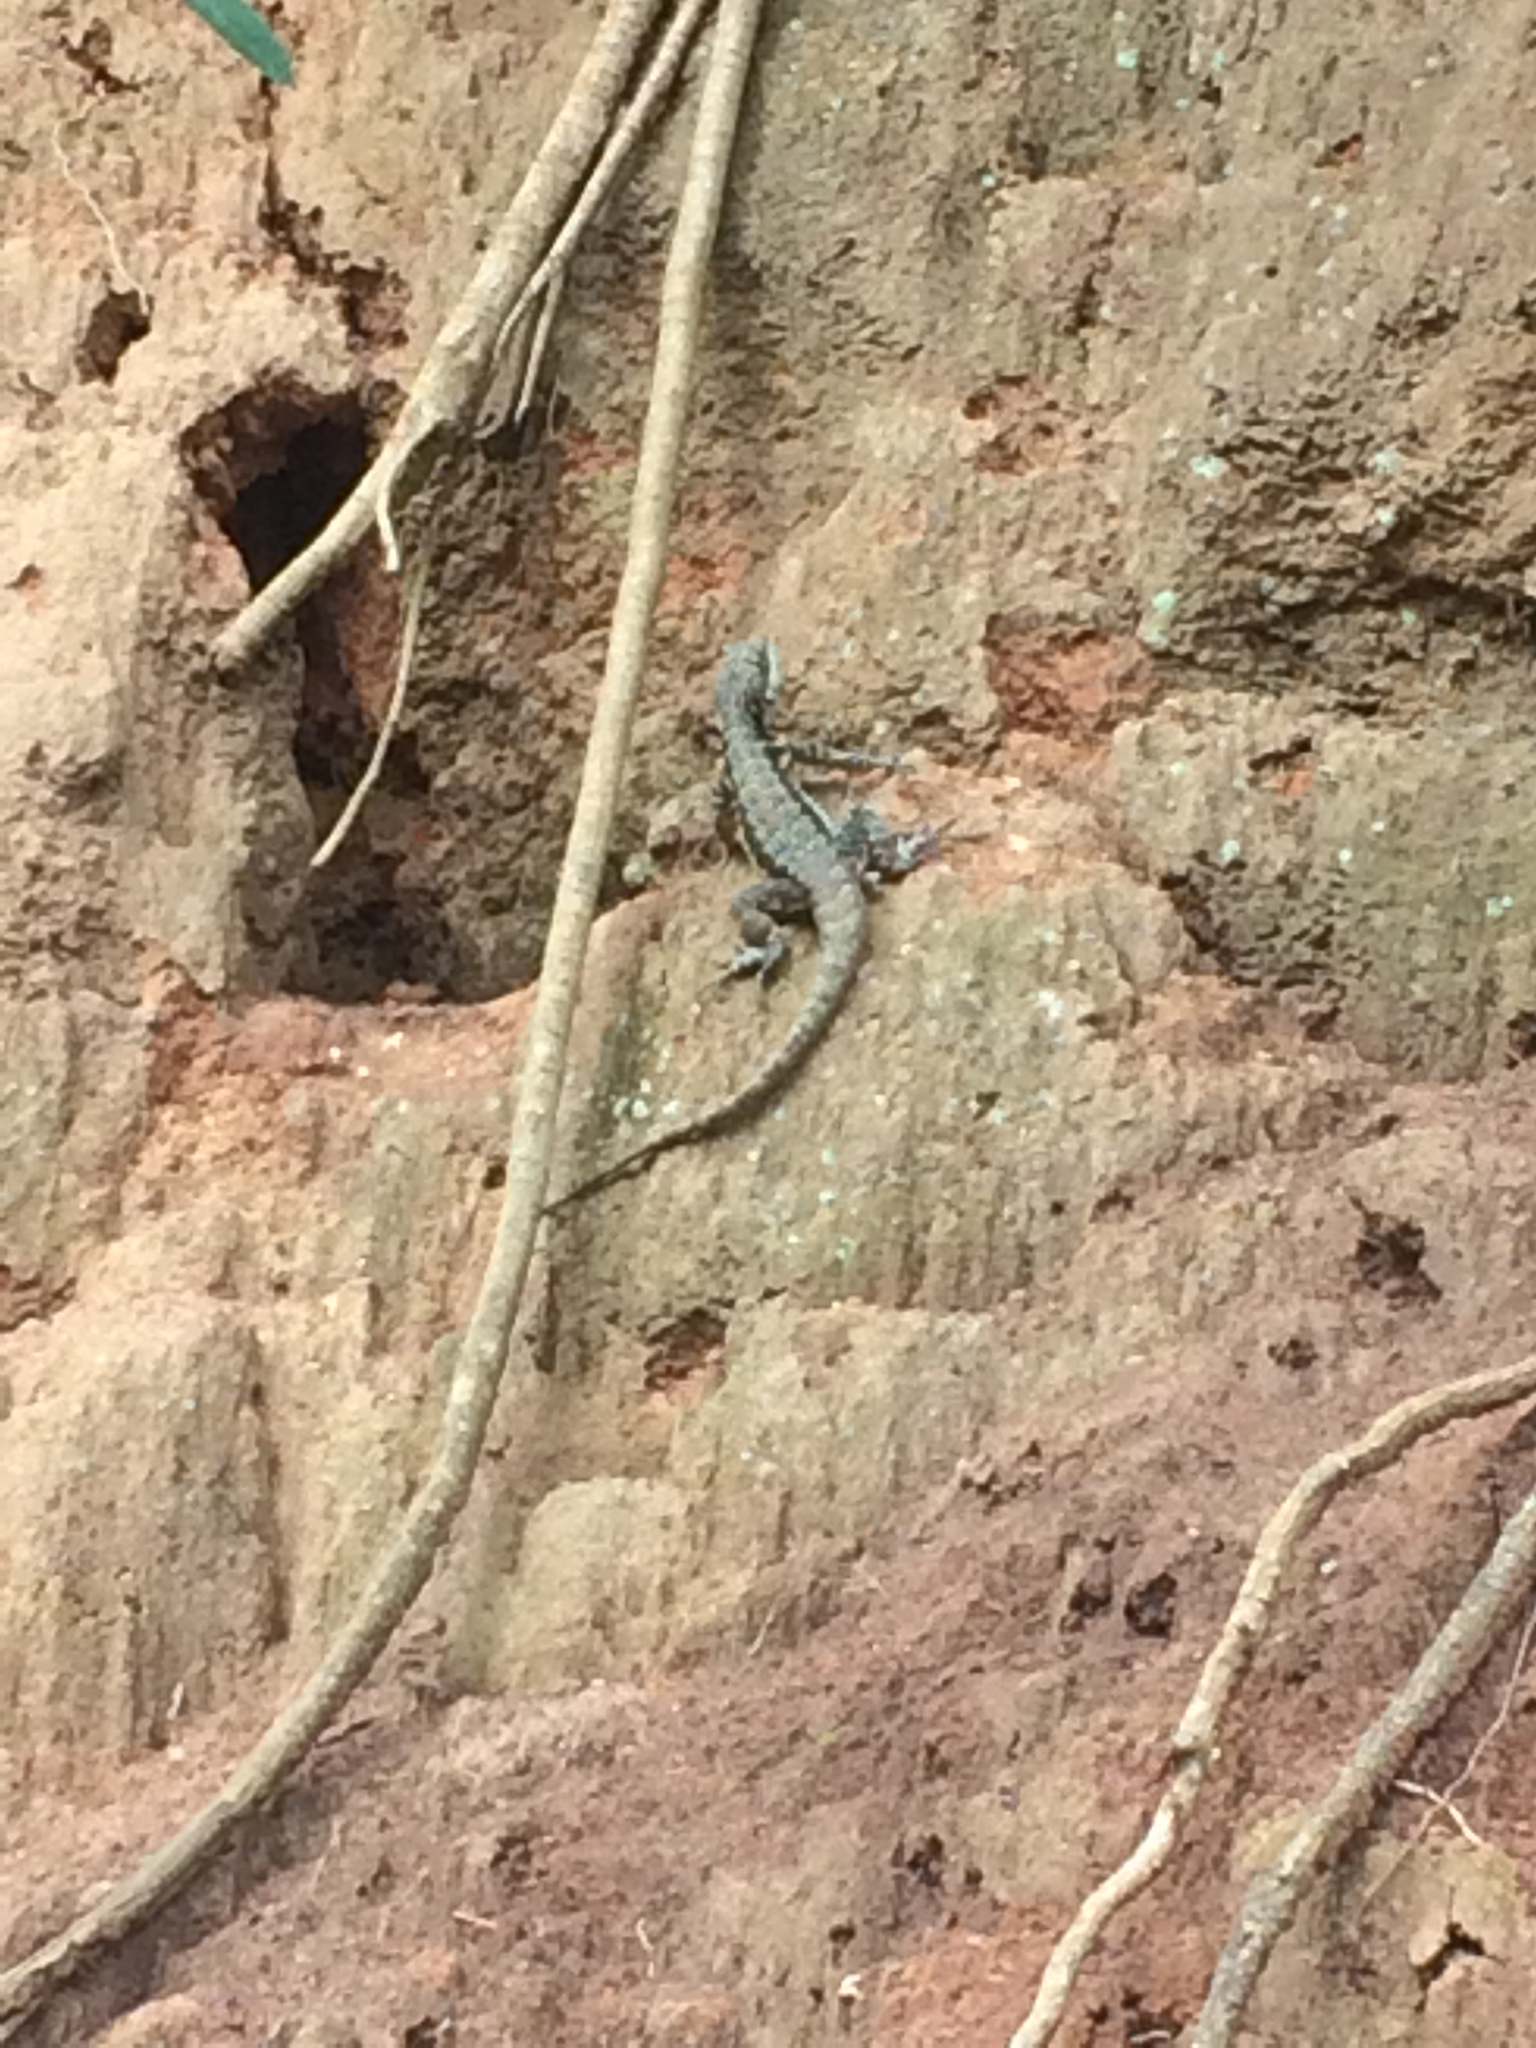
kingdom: Animalia
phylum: Chordata
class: Squamata
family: Tropiduridae
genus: Tropidurus
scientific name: Tropidurus torquatus
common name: Amazon lava lizard
